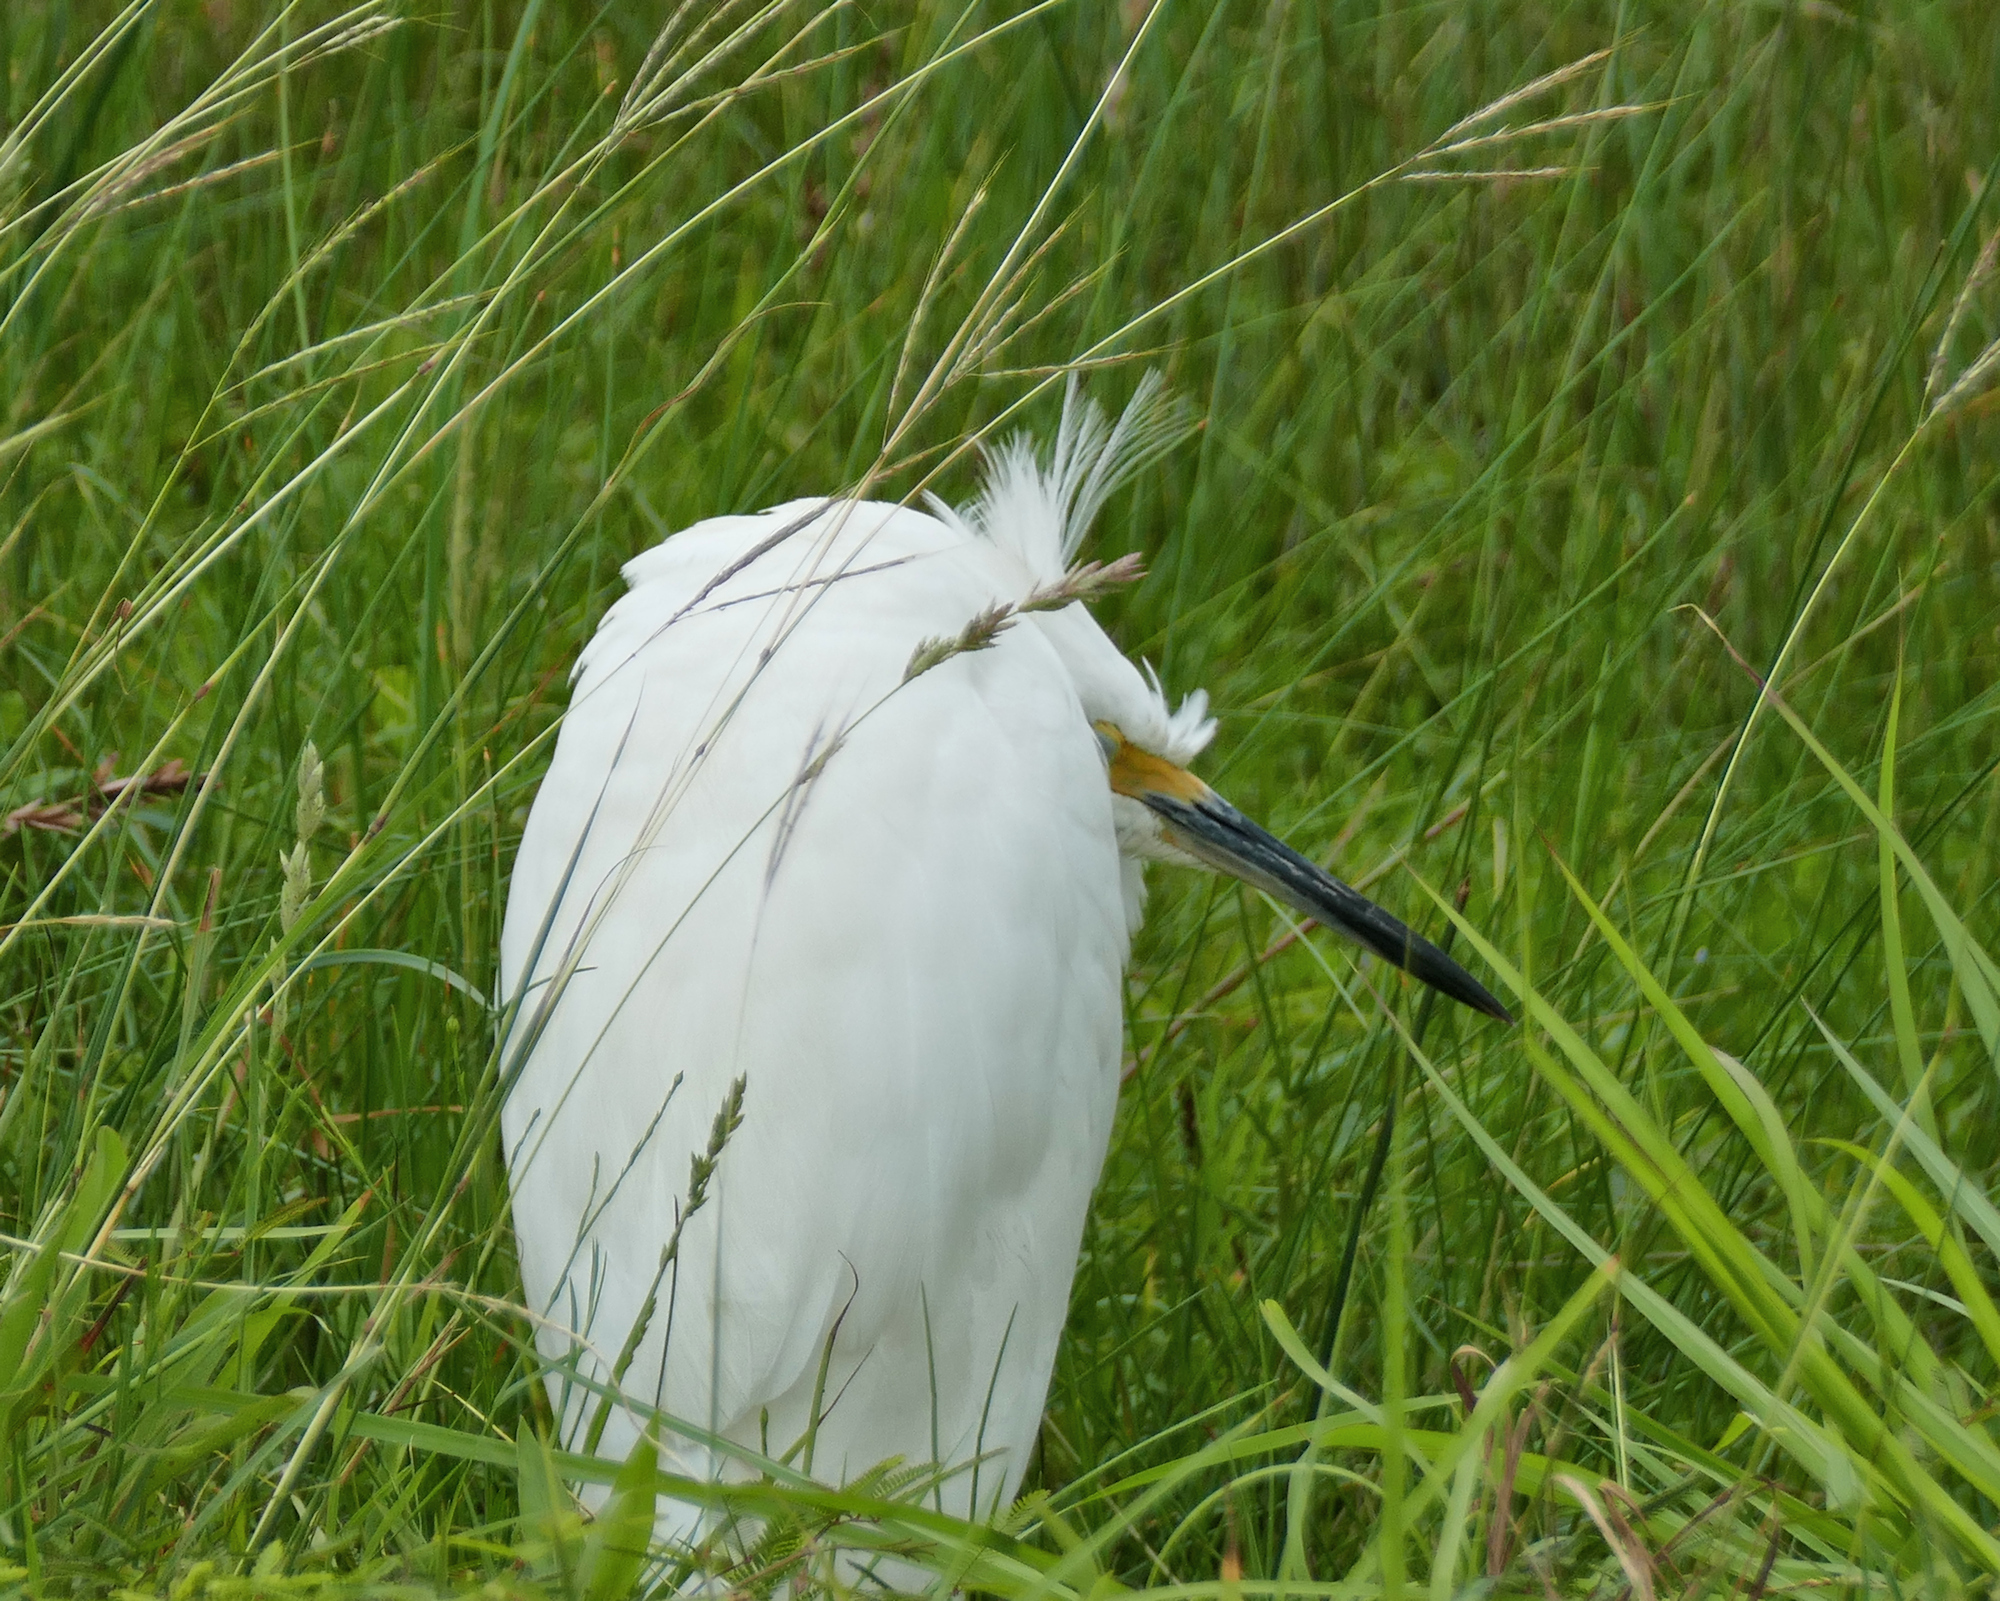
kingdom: Animalia
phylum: Chordata
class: Aves
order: Pelecaniformes
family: Ardeidae
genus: Egretta
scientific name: Egretta thula
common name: Snowy egret
